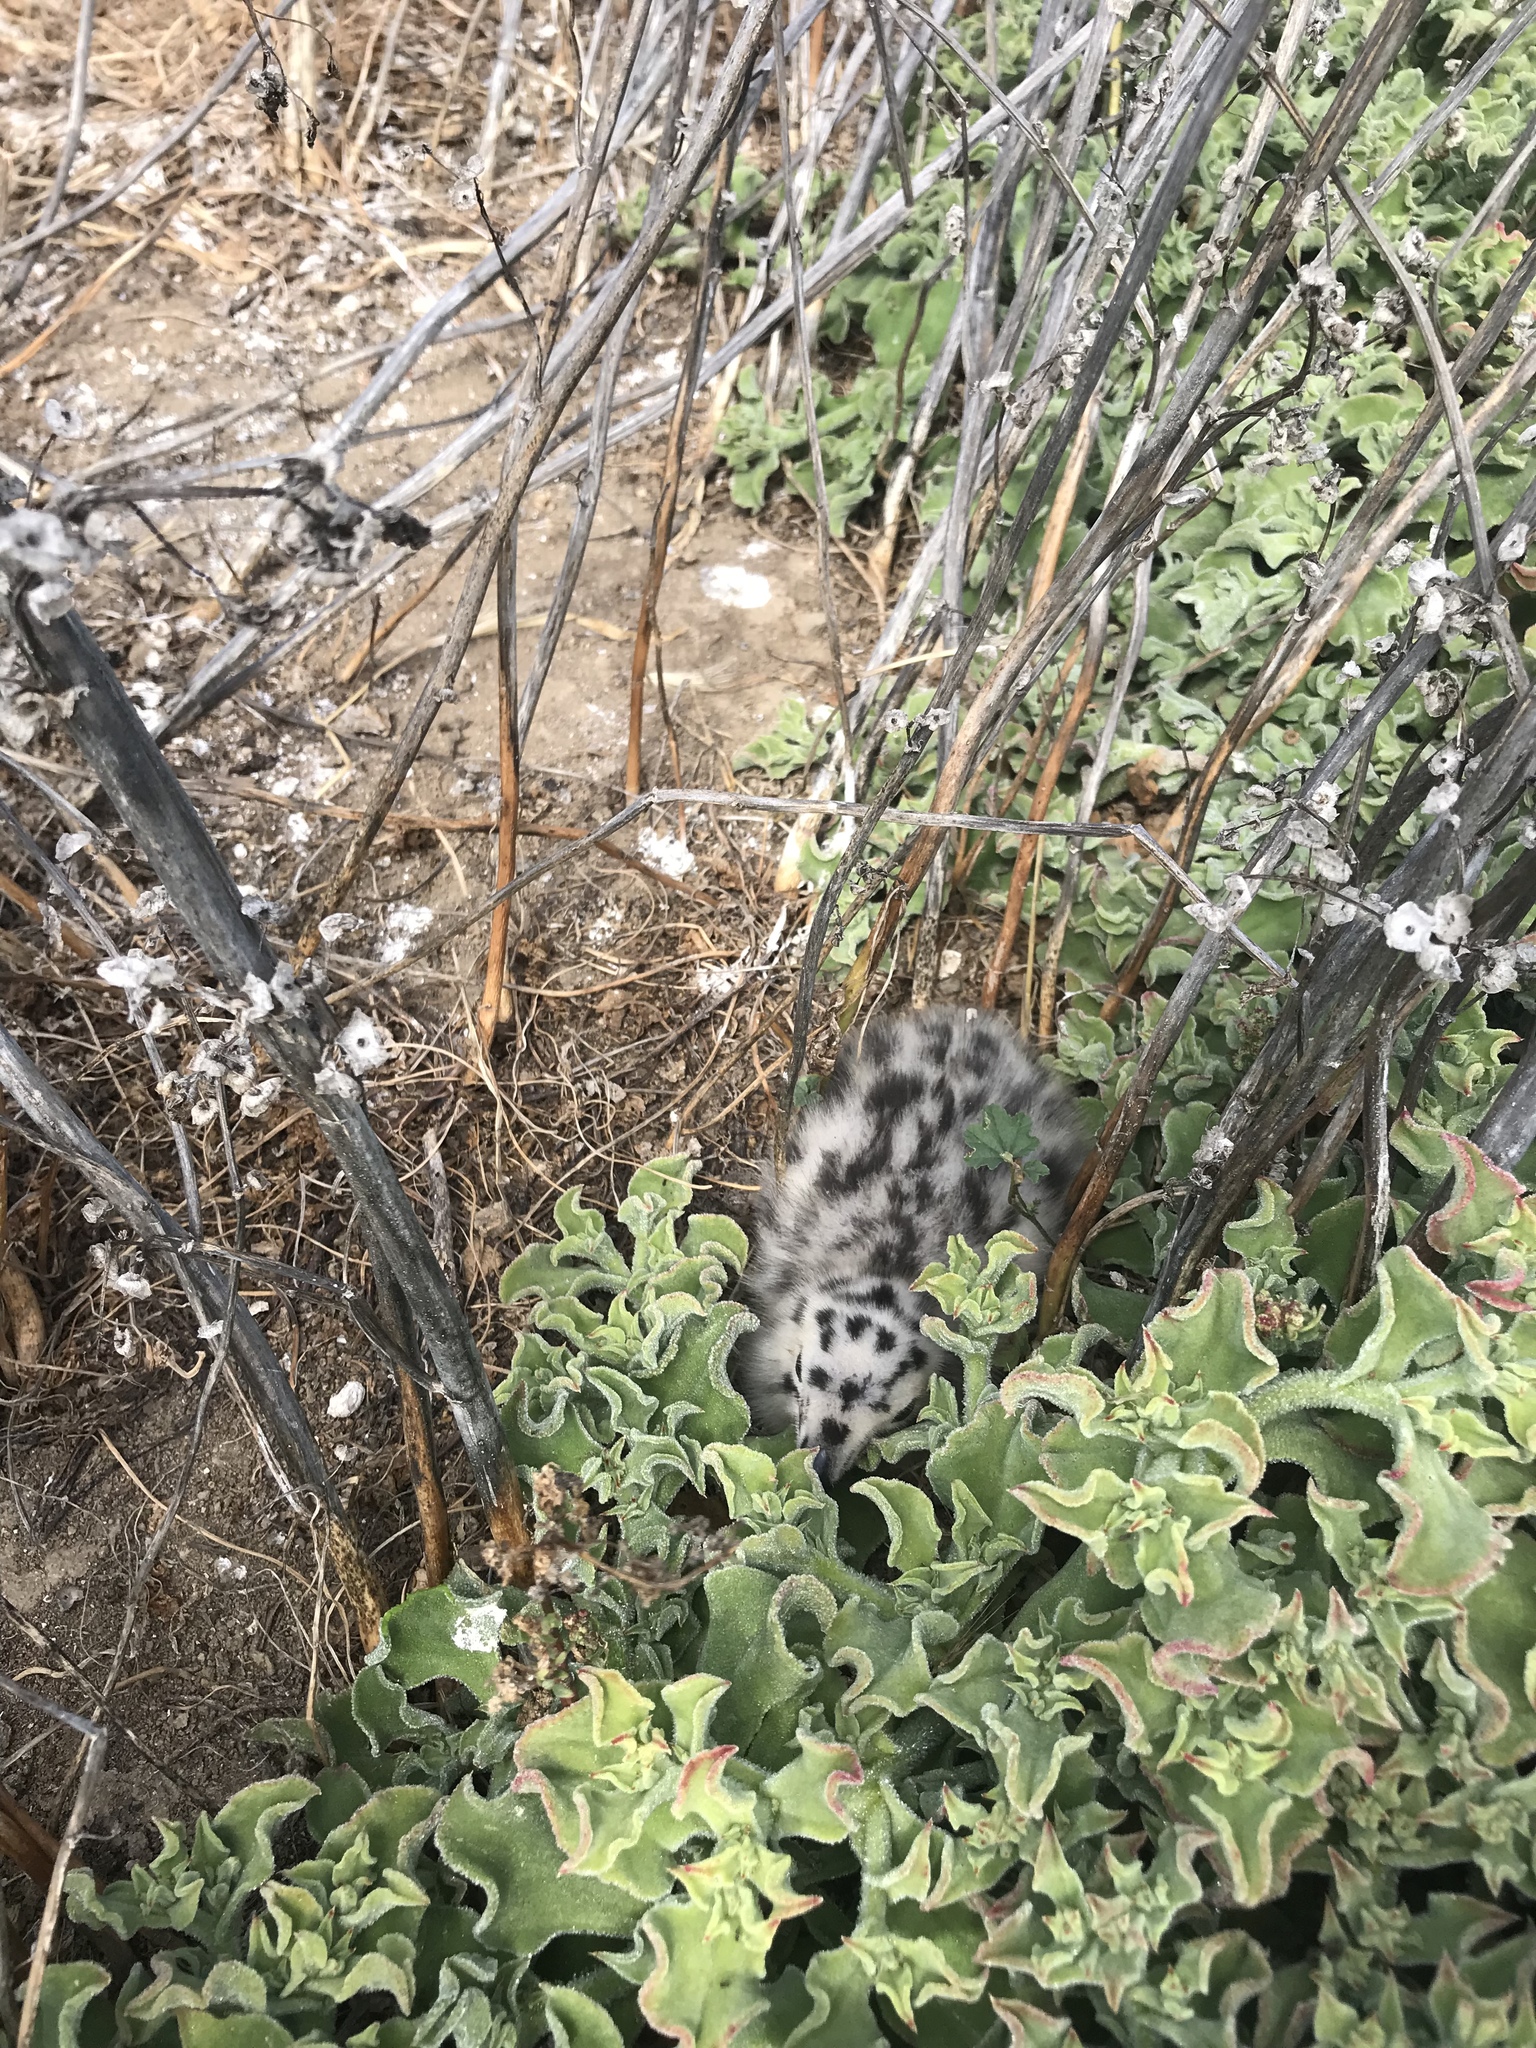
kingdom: Animalia
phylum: Chordata
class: Aves
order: Charadriiformes
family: Laridae
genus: Larus
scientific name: Larus occidentalis
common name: Western gull
